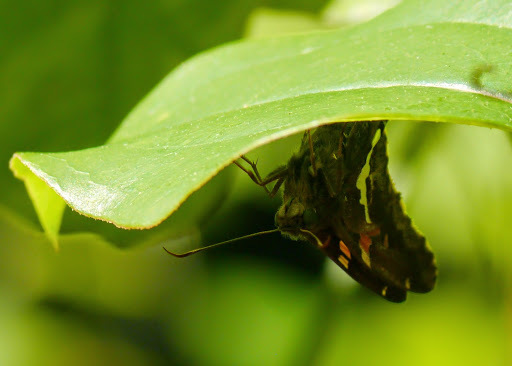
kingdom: Animalia
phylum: Arthropoda
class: Insecta
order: Lepidoptera
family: Hesperiidae
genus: Epargyreus
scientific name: Epargyreus clarus
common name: Silver-spotted skipper
